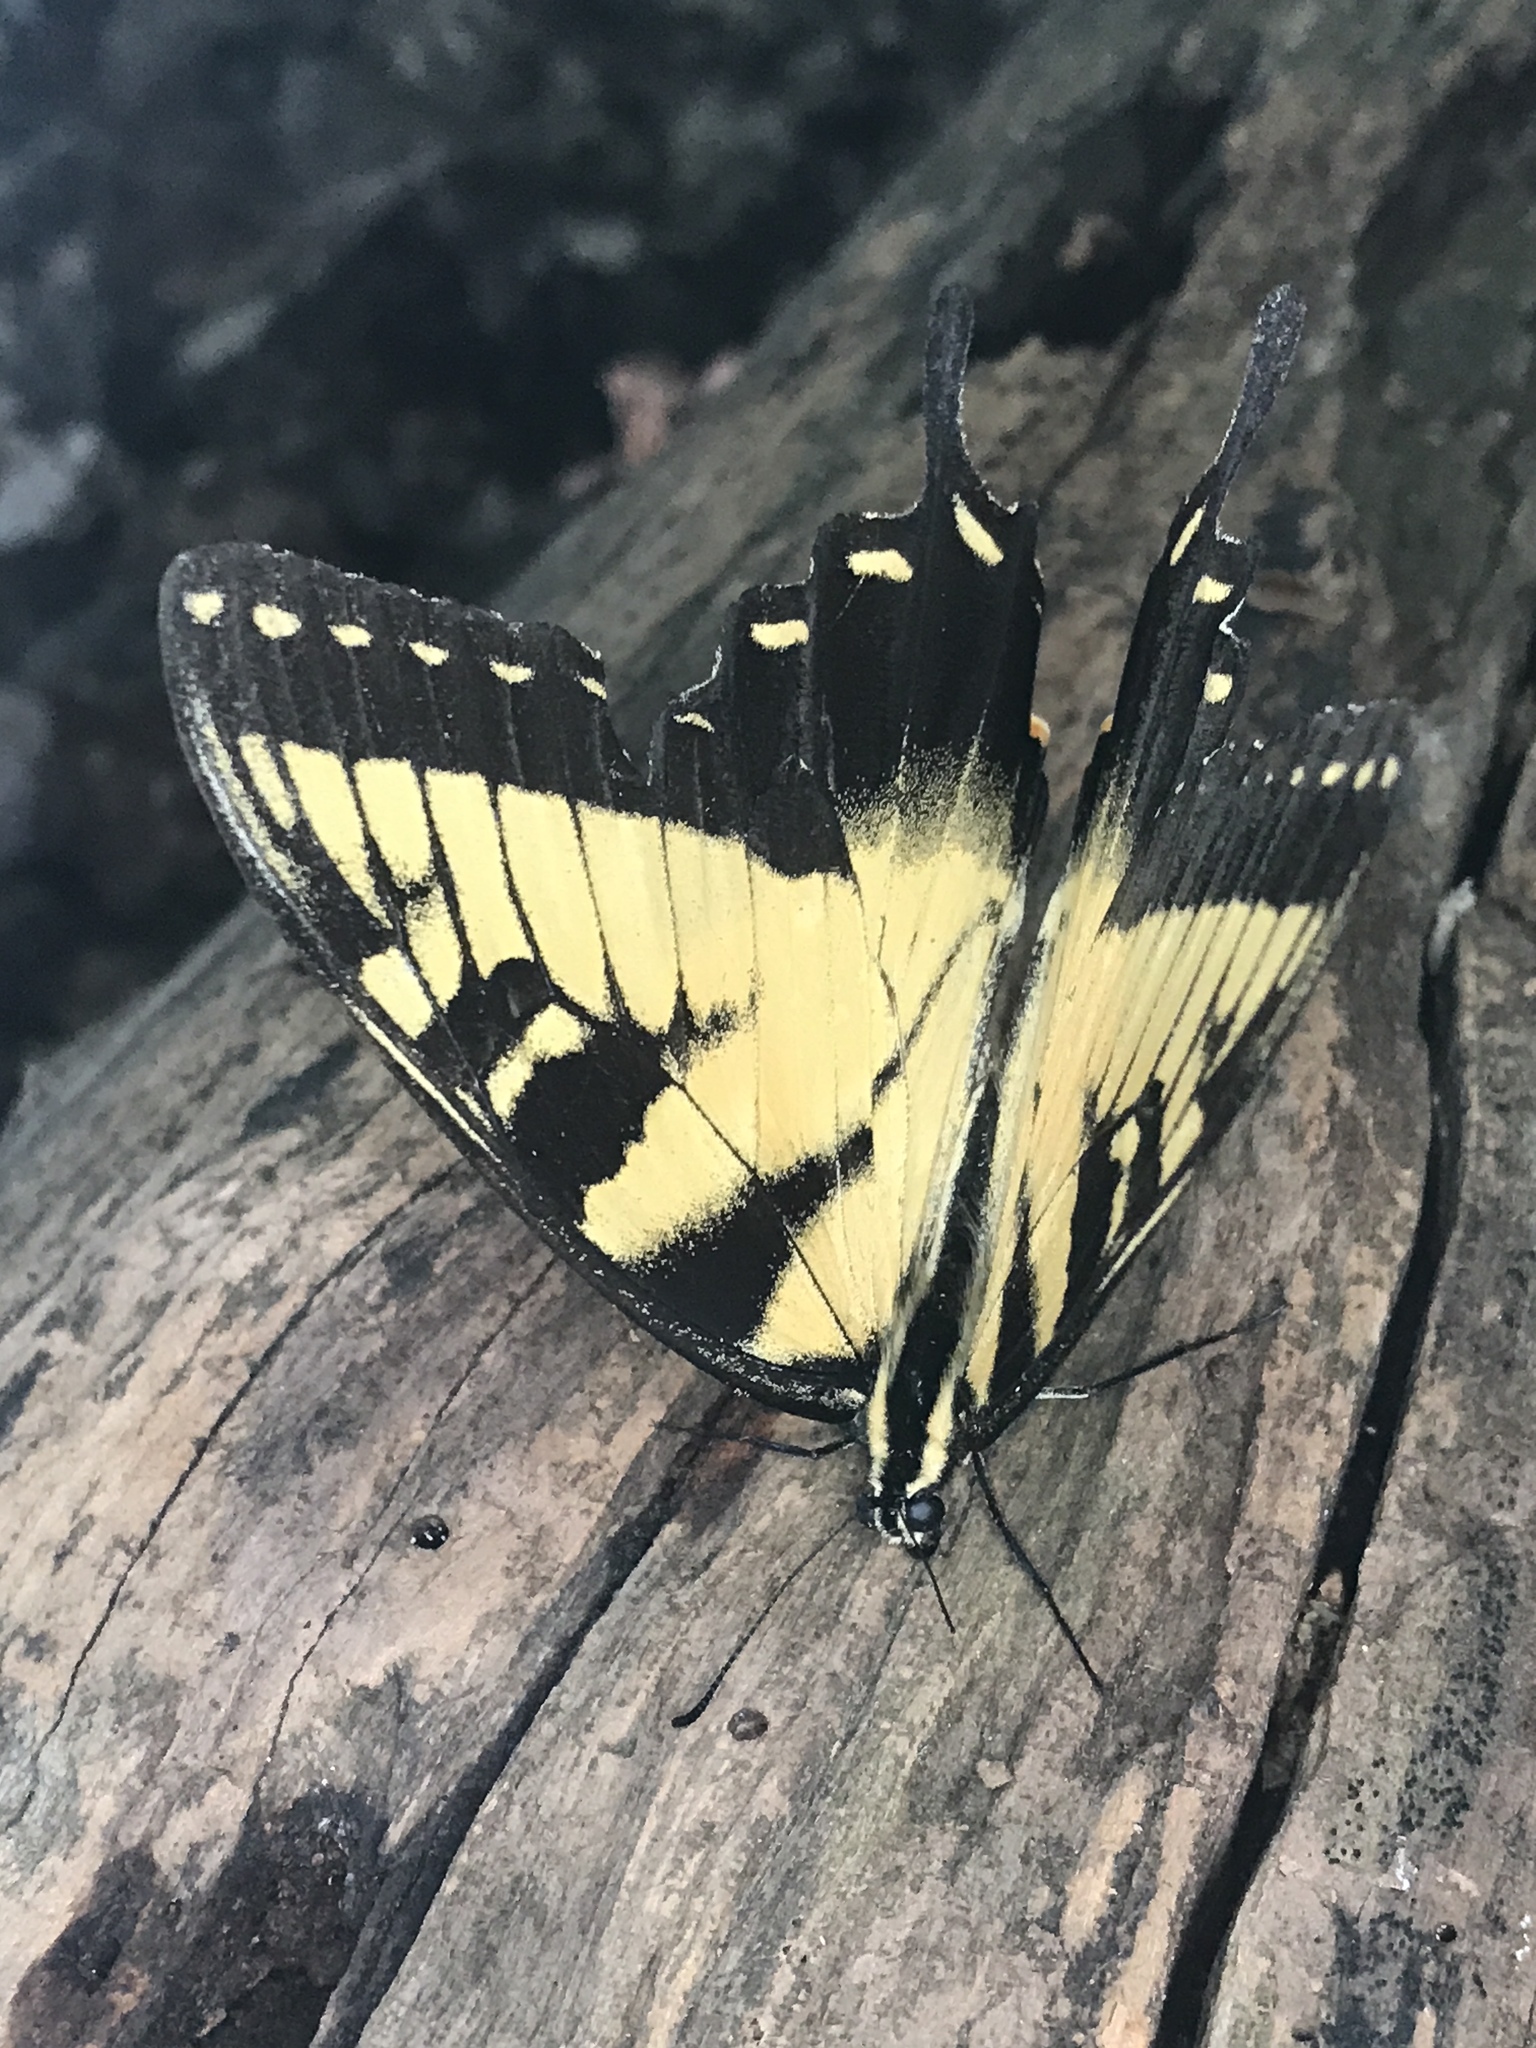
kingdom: Animalia
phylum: Arthropoda
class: Insecta
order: Lepidoptera
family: Papilionidae
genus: Papilio
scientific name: Papilio glaucus
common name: Tiger swallowtail
